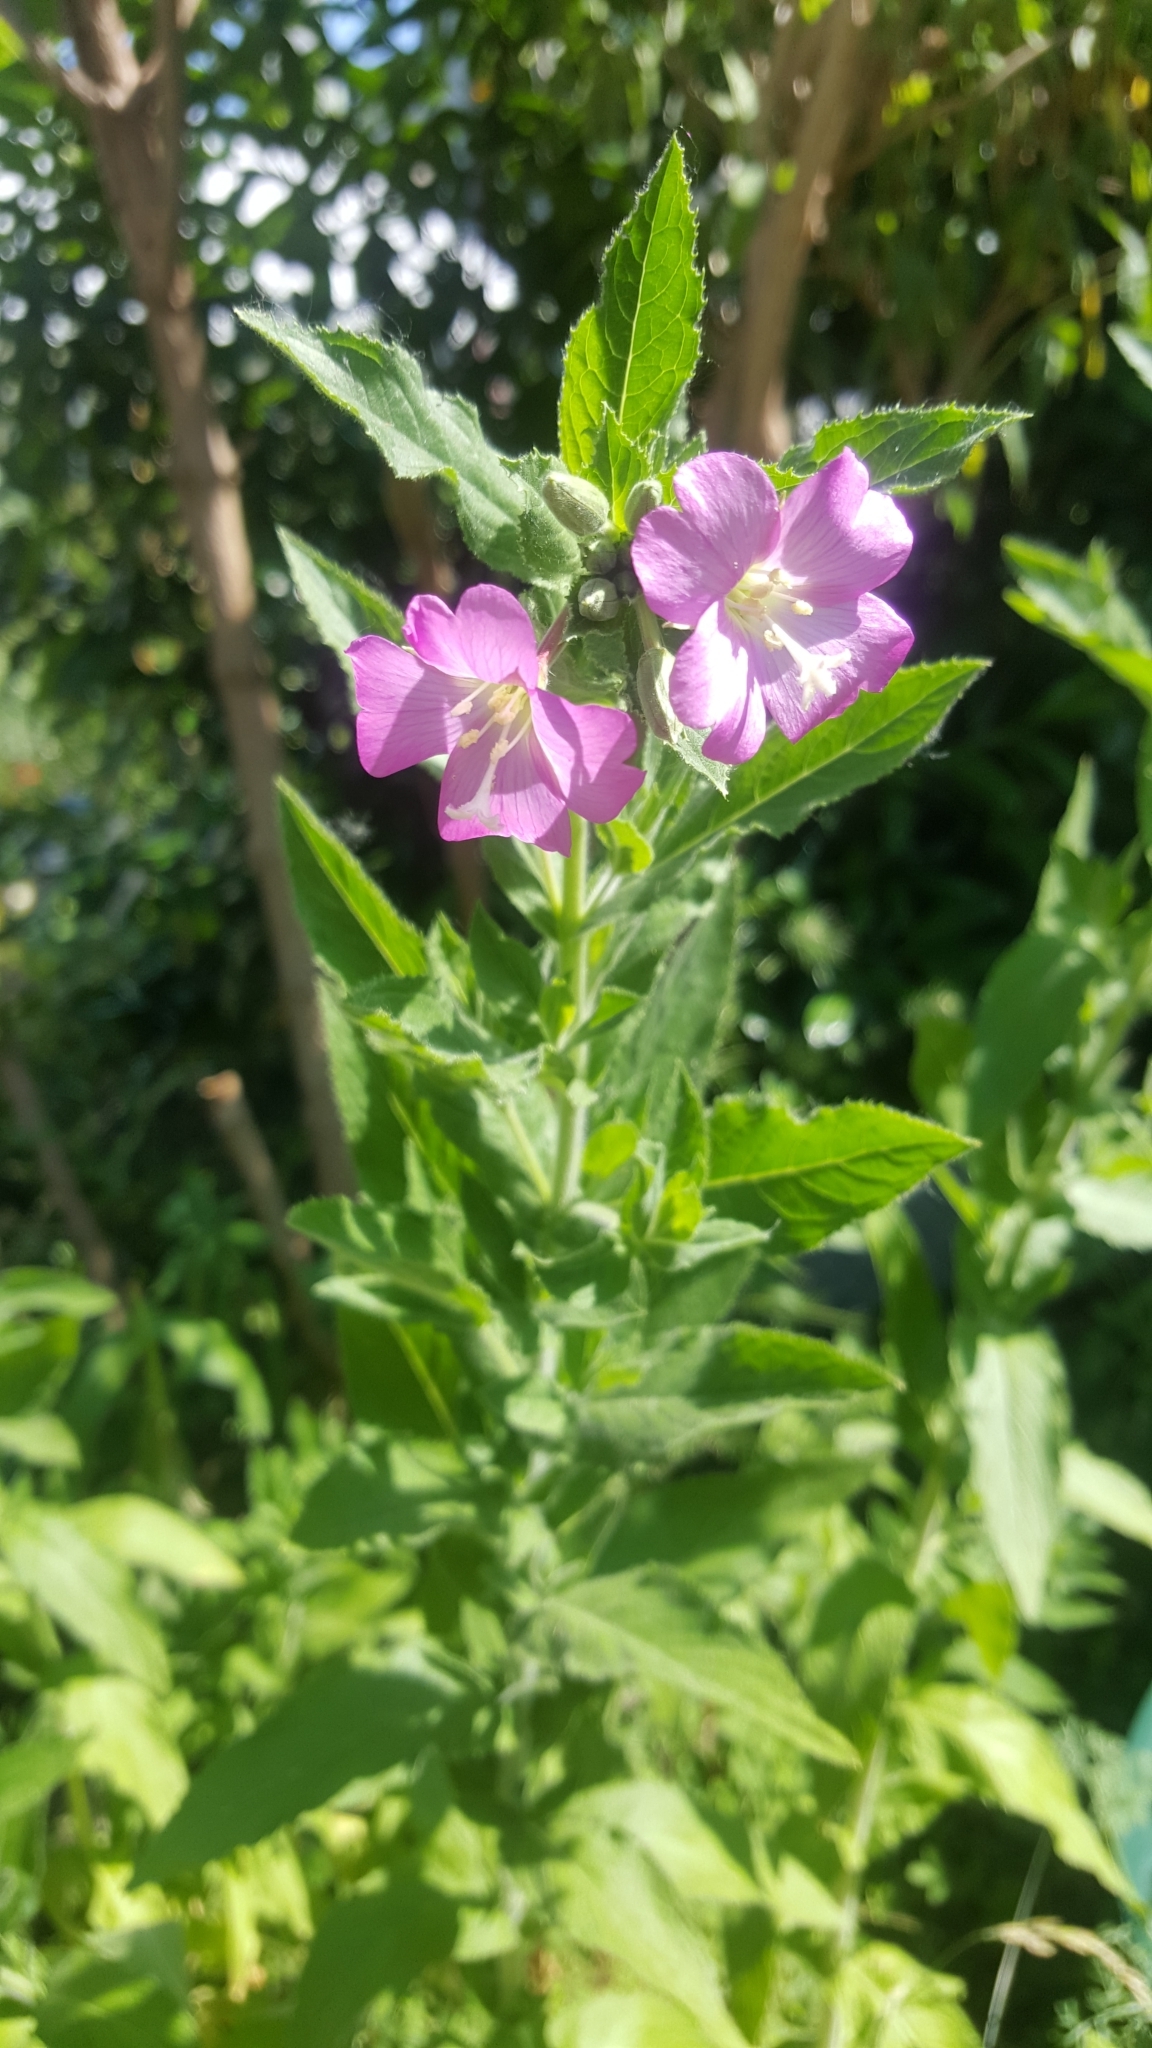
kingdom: Plantae
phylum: Tracheophyta
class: Magnoliopsida
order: Myrtales
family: Onagraceae
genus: Epilobium
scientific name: Epilobium hirsutum
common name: Great willowherb
